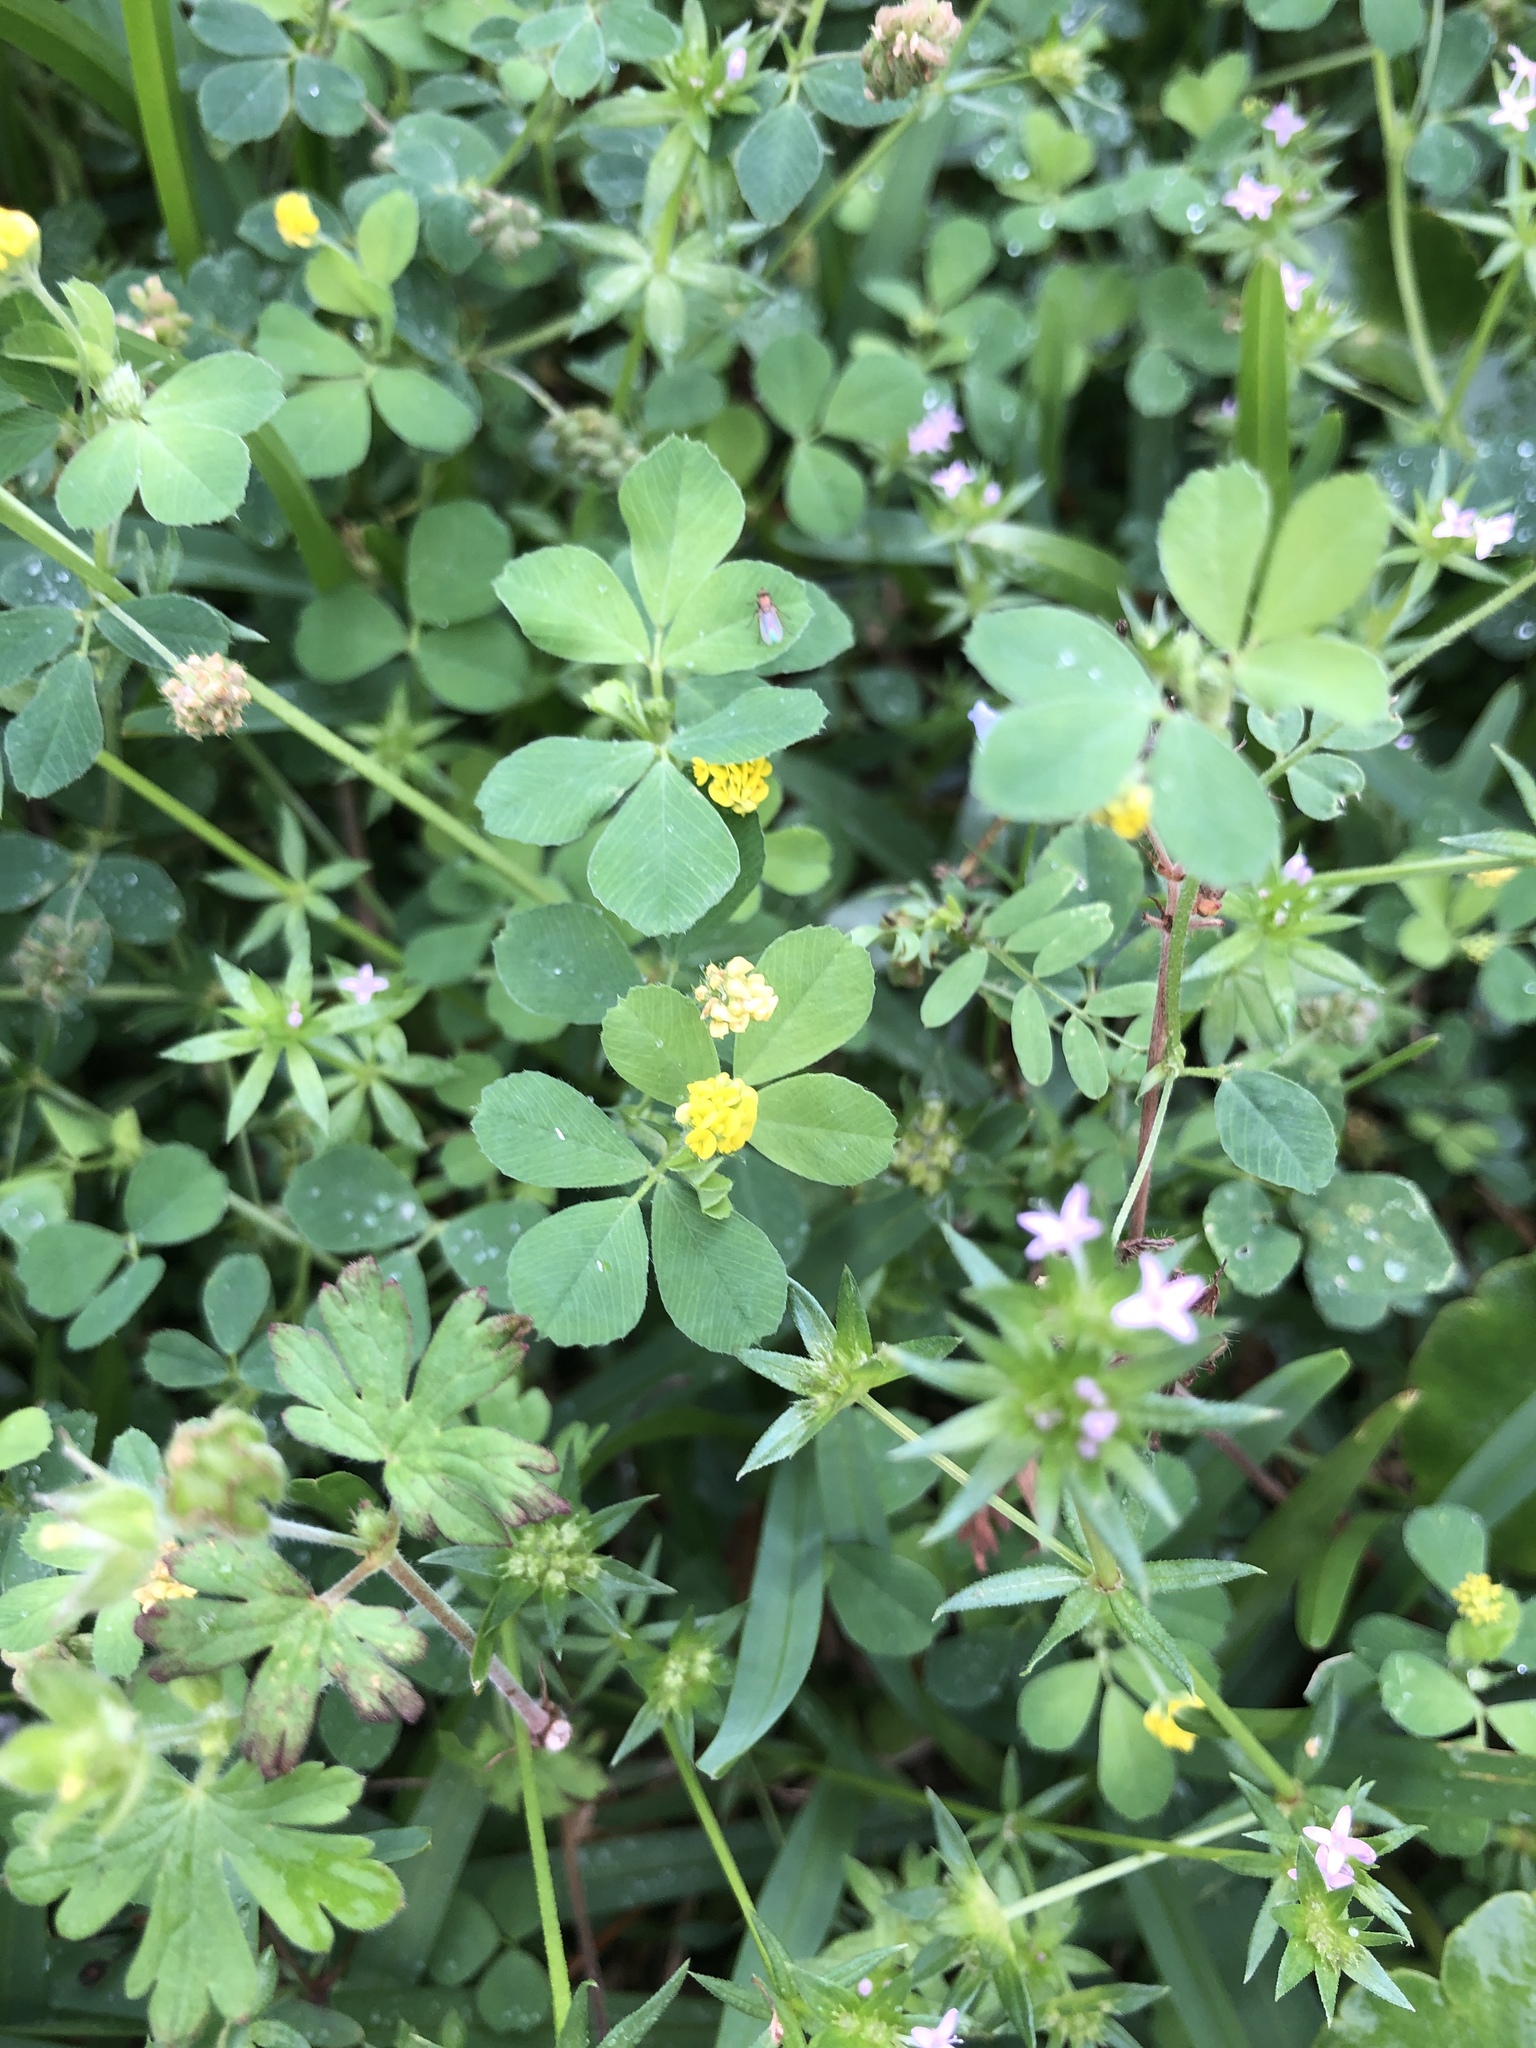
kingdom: Plantae
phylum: Tracheophyta
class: Magnoliopsida
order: Fabales
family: Fabaceae
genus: Medicago
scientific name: Medicago lupulina
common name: Black medick
